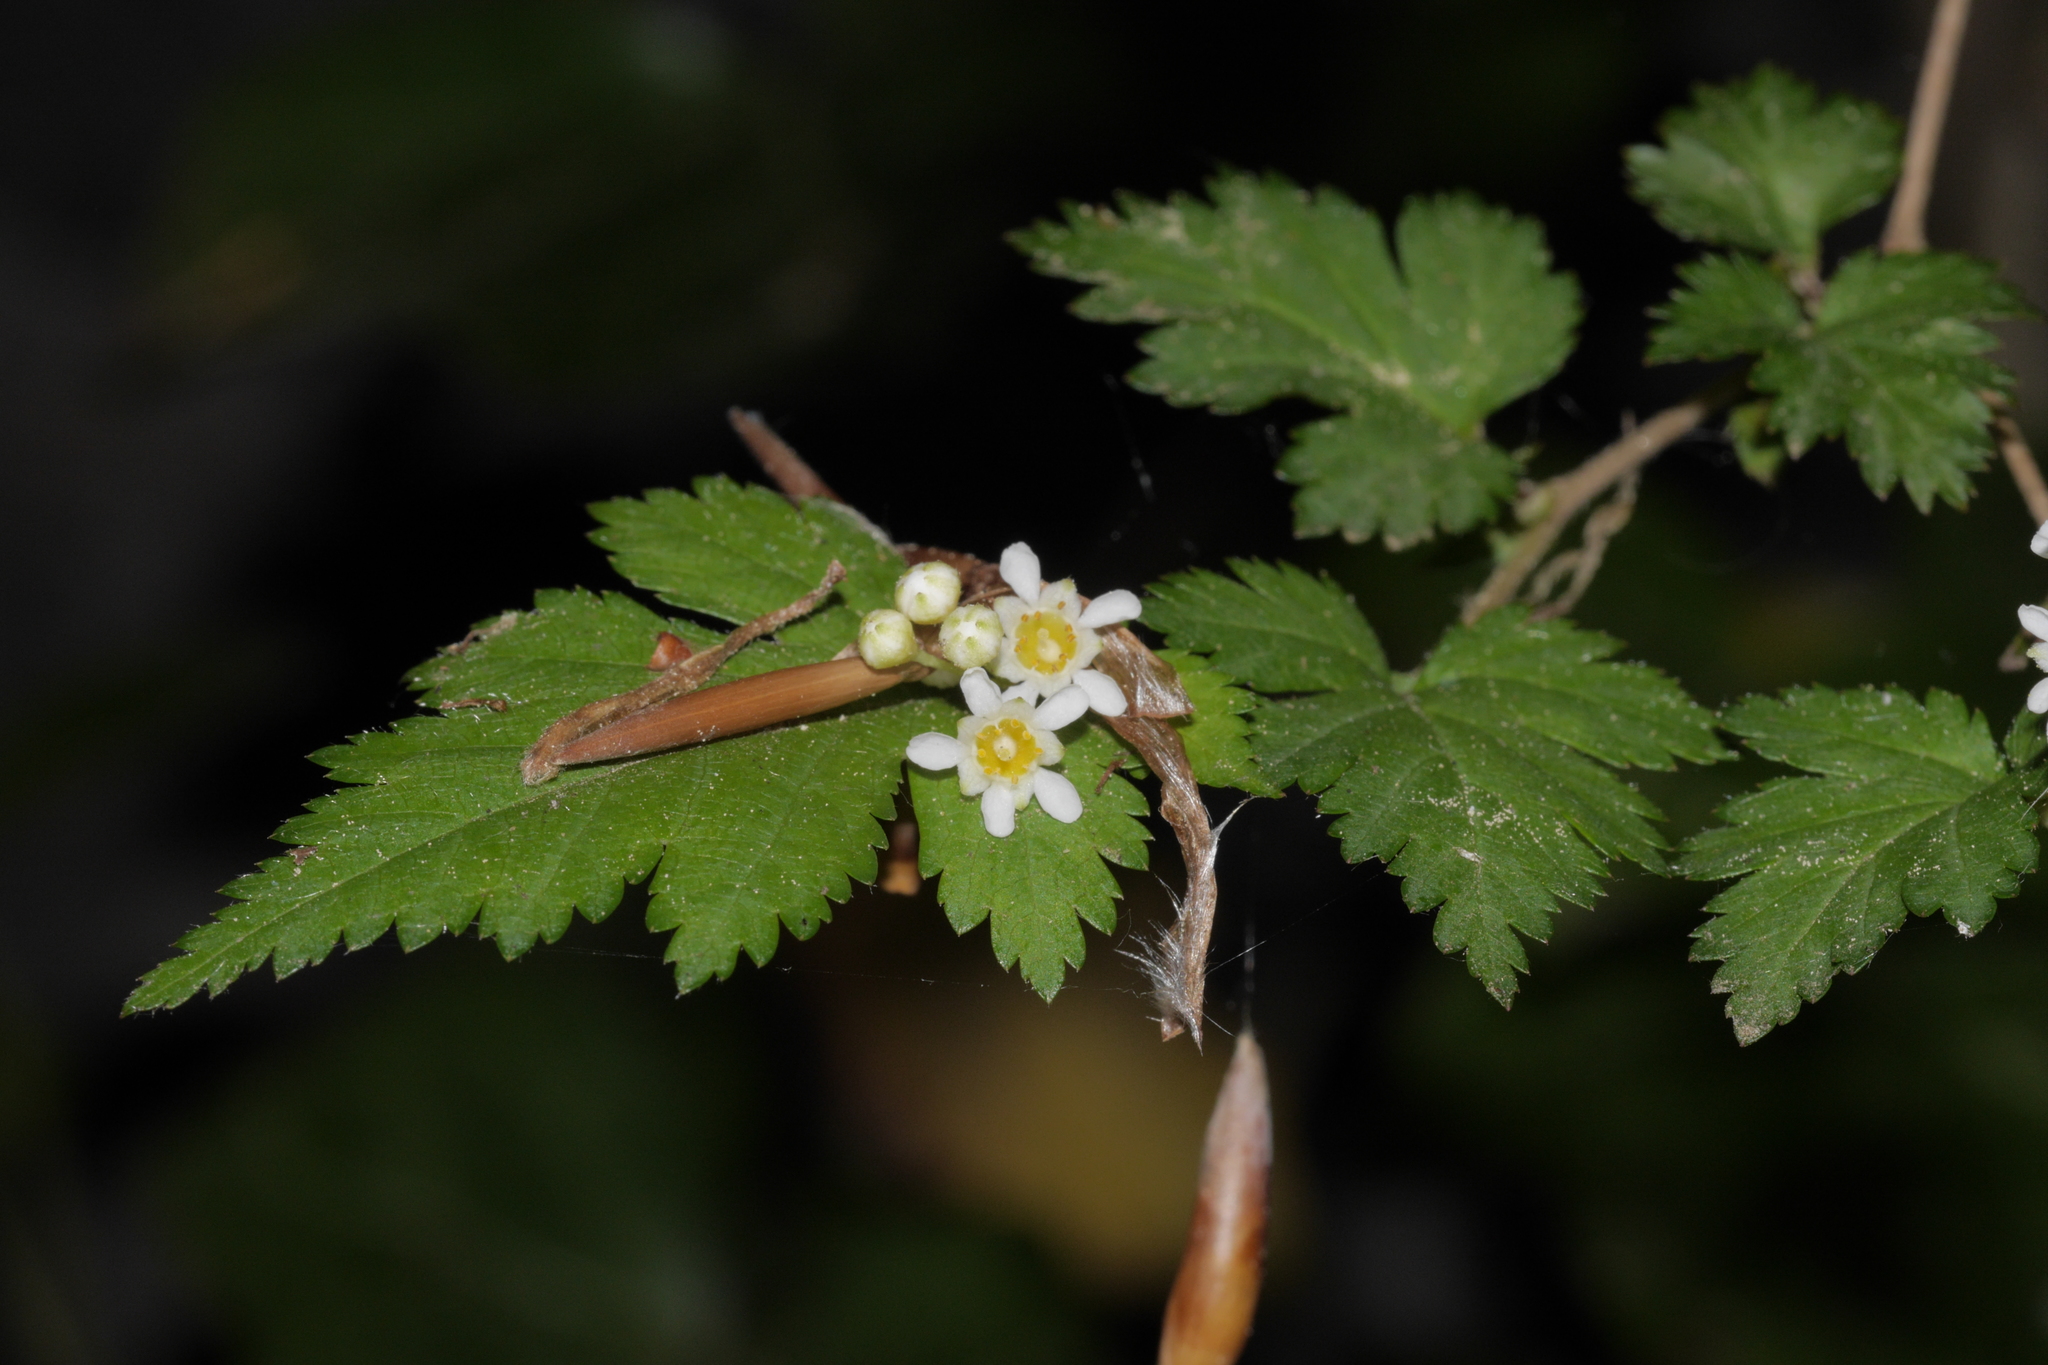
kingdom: Plantae
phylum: Tracheophyta
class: Magnoliopsida
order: Rosales
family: Rosaceae
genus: Neillia
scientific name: Neillia incisa
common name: Laceshrub
